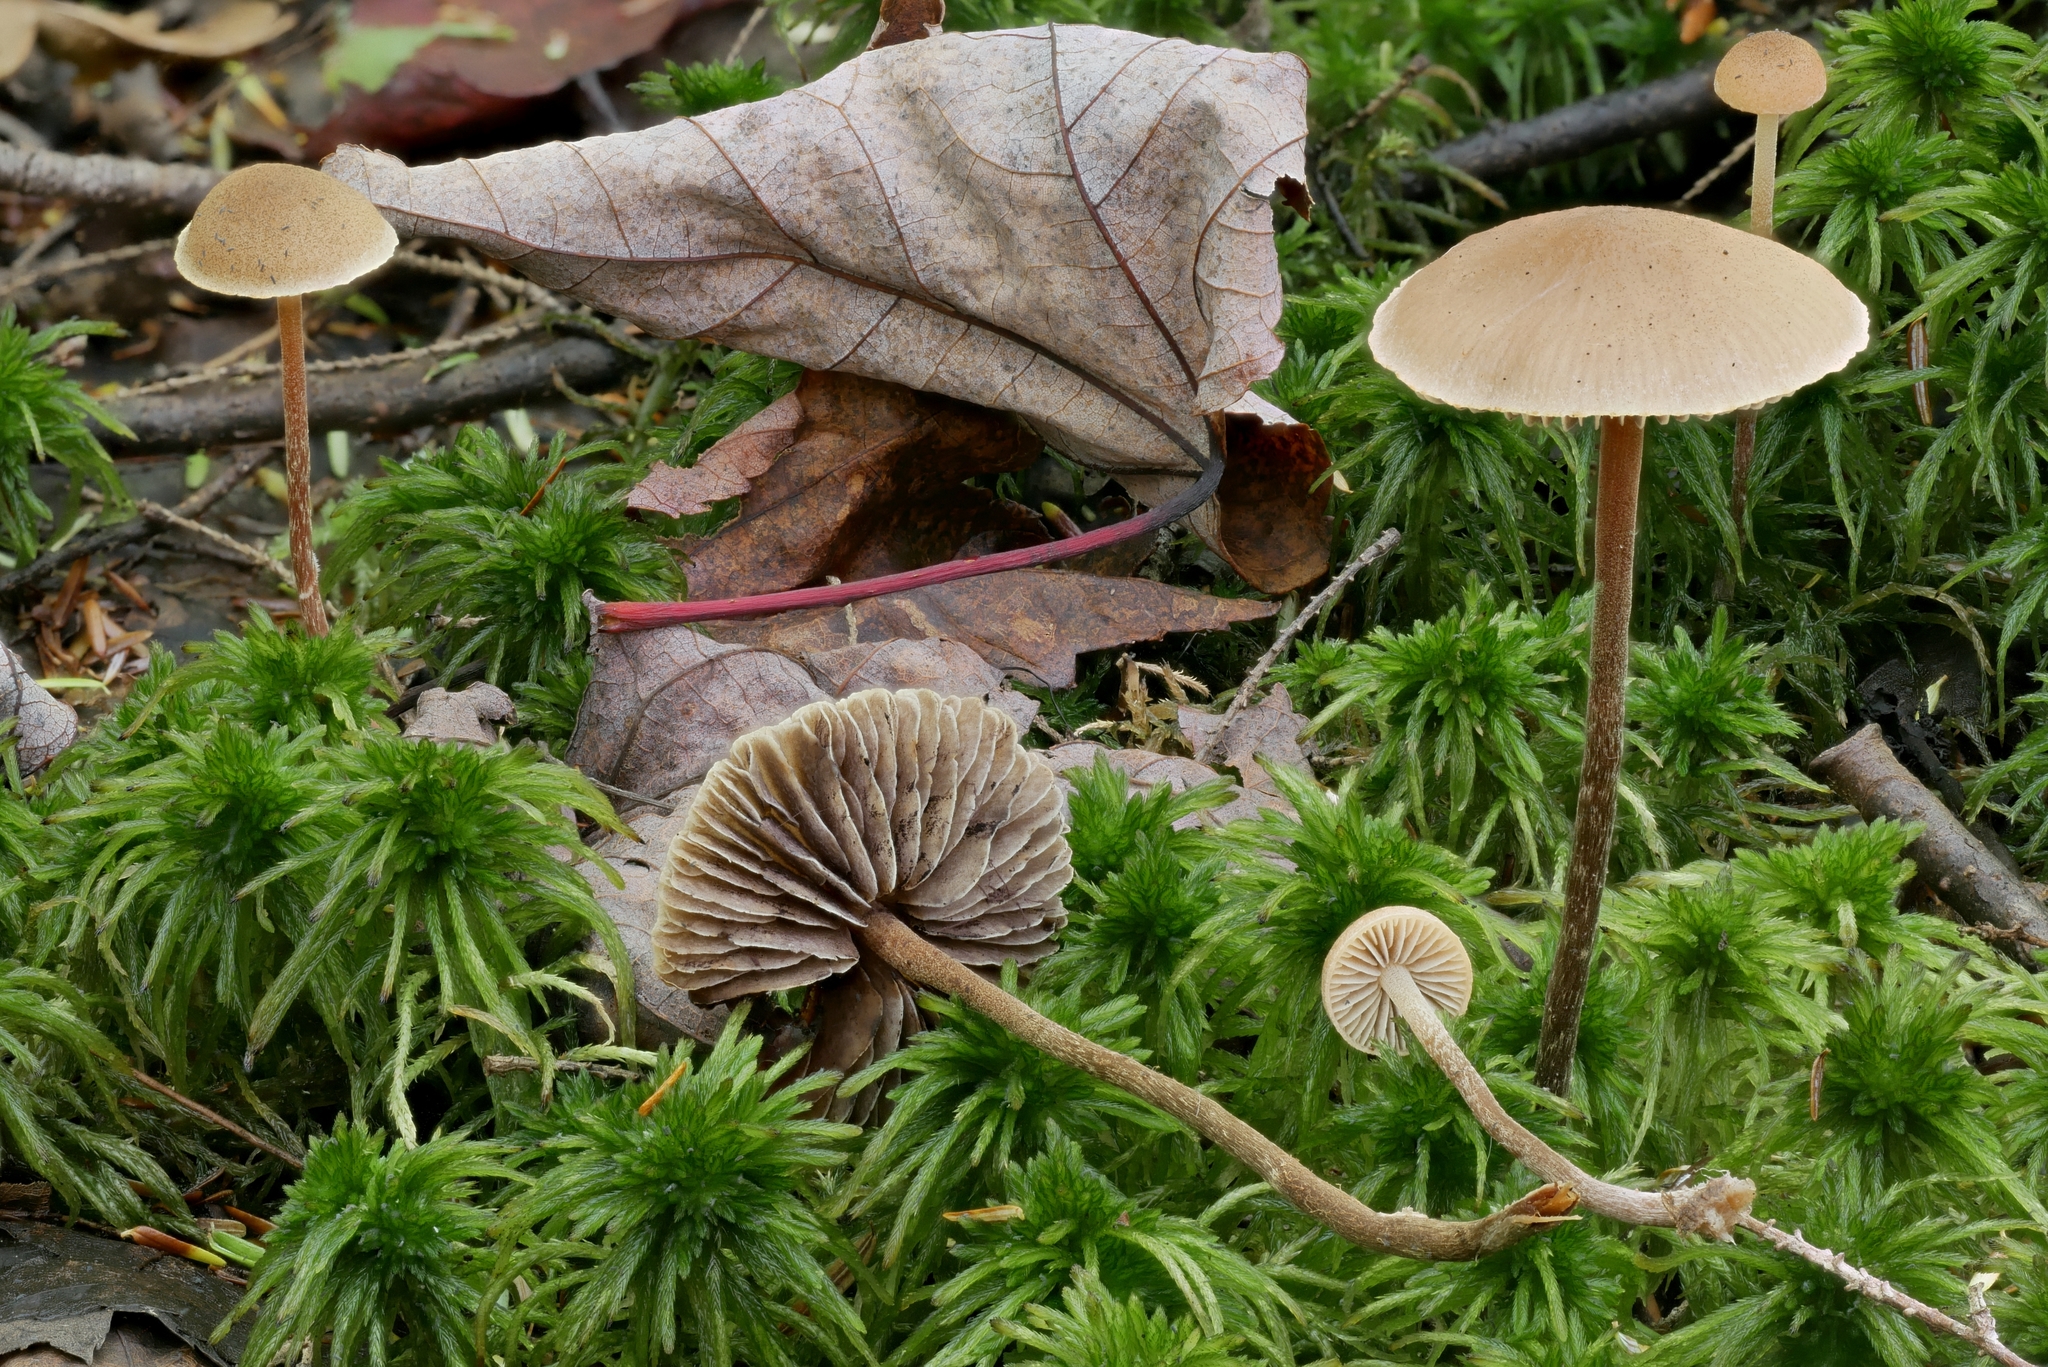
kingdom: Fungi
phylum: Basidiomycota
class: Agaricomycetes
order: Agaricales
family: Strophariaceae
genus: Bogbodia
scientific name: Bogbodia uda
